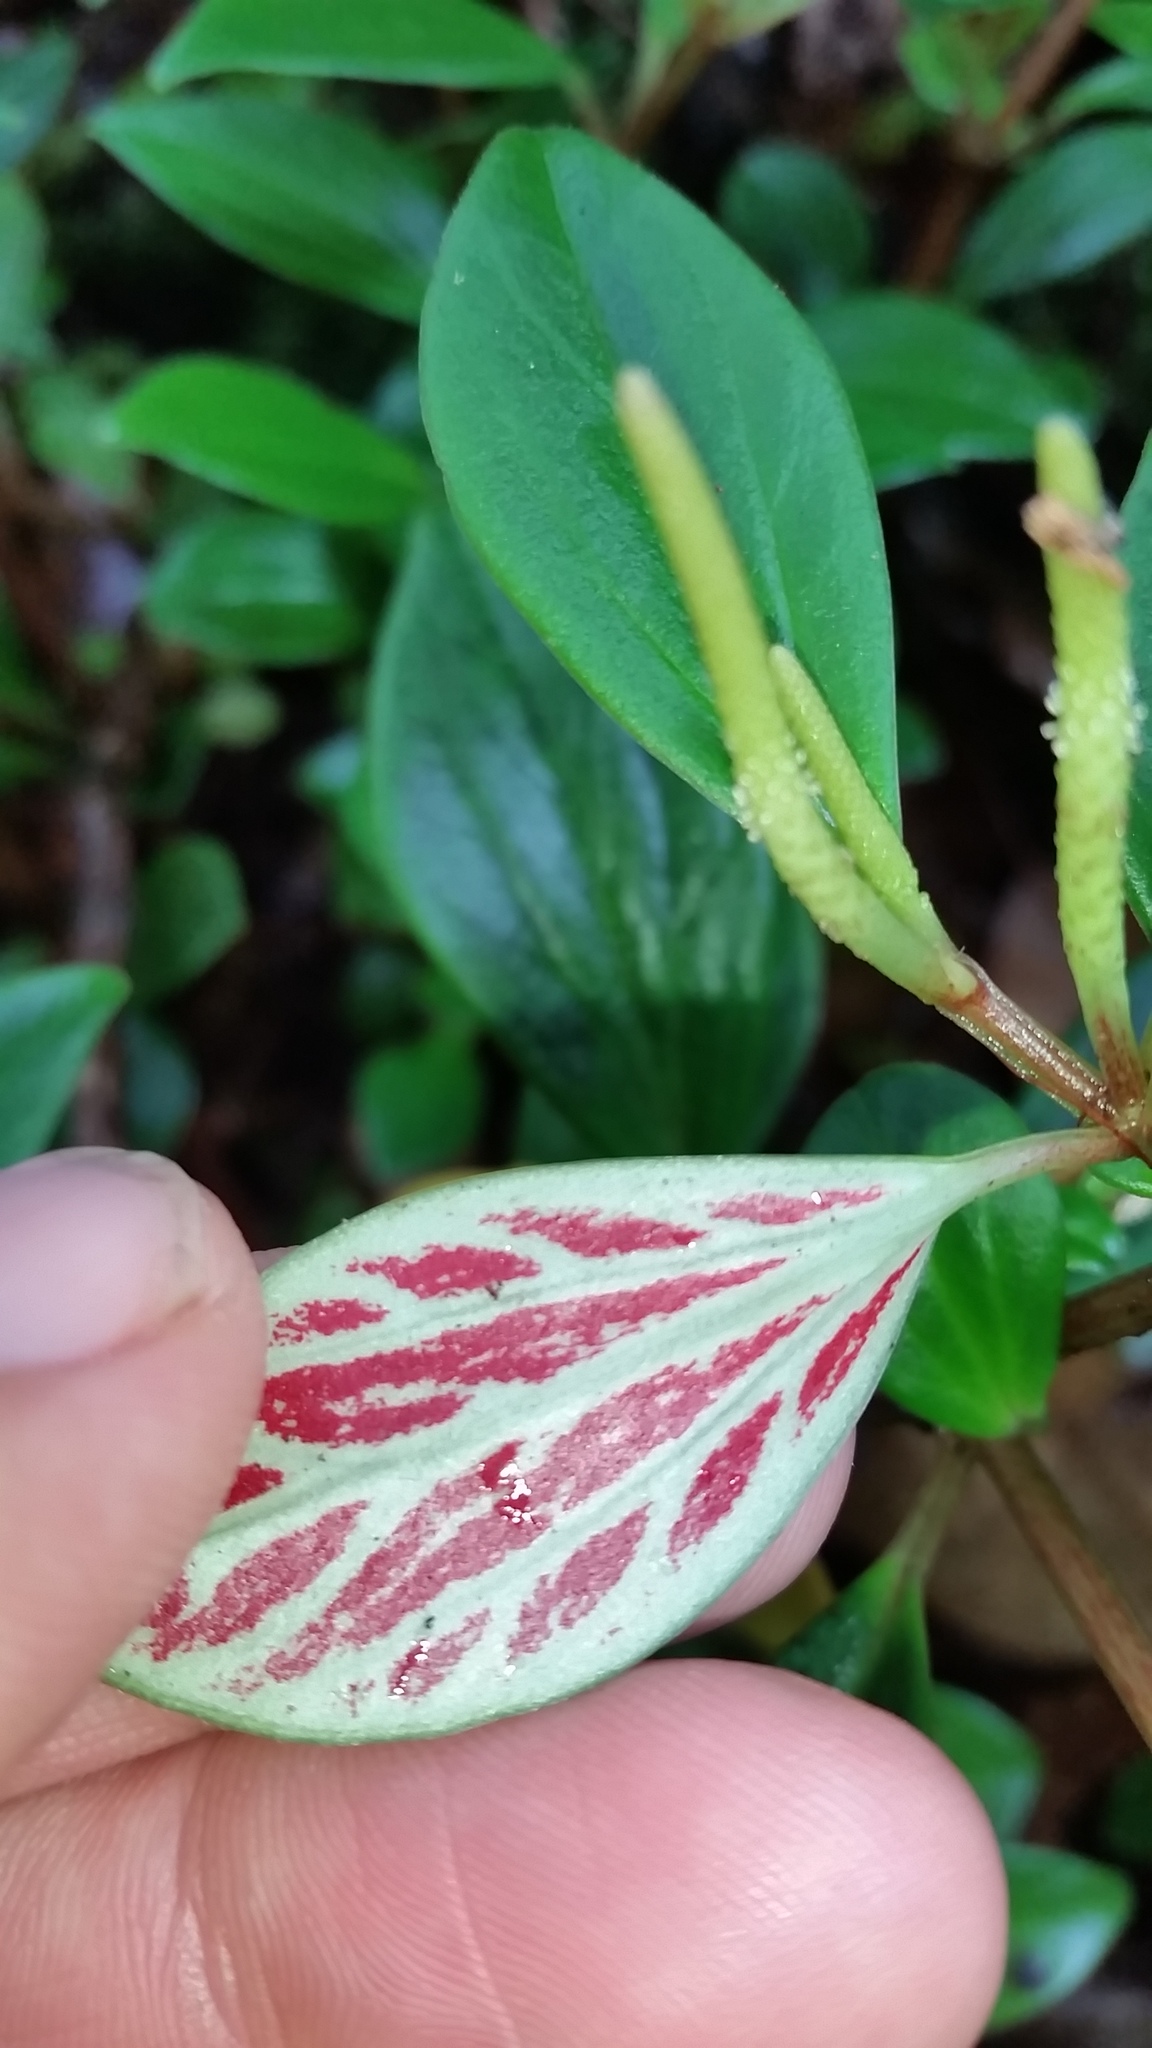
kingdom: Plantae
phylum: Tracheophyta
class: Magnoliopsida
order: Piperales
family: Piperaceae
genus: Peperomia
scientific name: Peperomia hypoleuca
